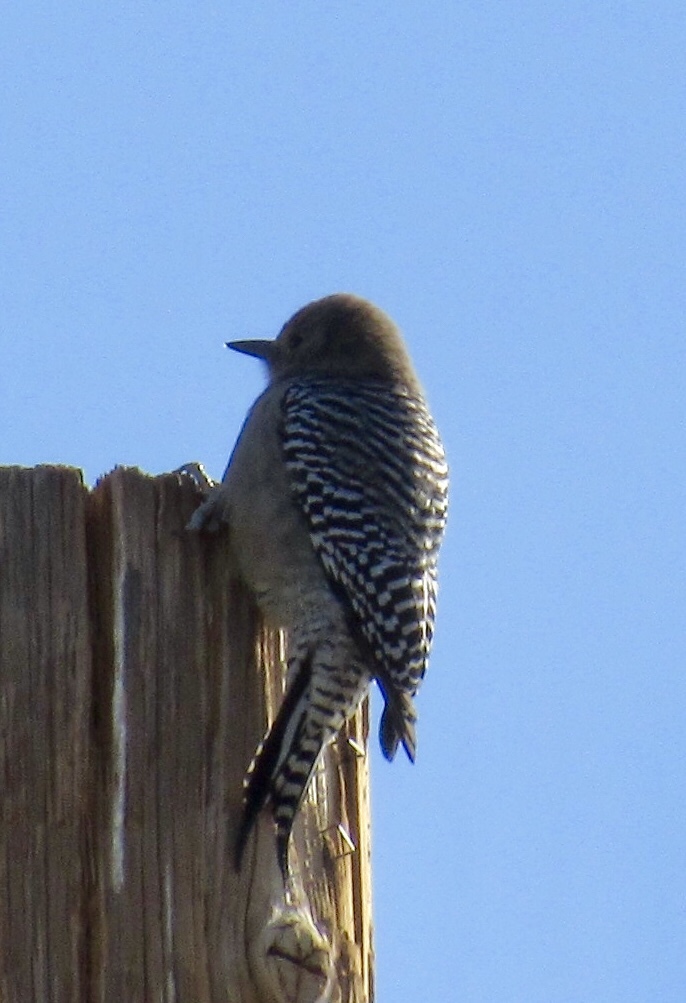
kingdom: Animalia
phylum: Chordata
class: Aves
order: Piciformes
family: Picidae
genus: Melanerpes
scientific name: Melanerpes uropygialis
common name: Gila woodpecker
